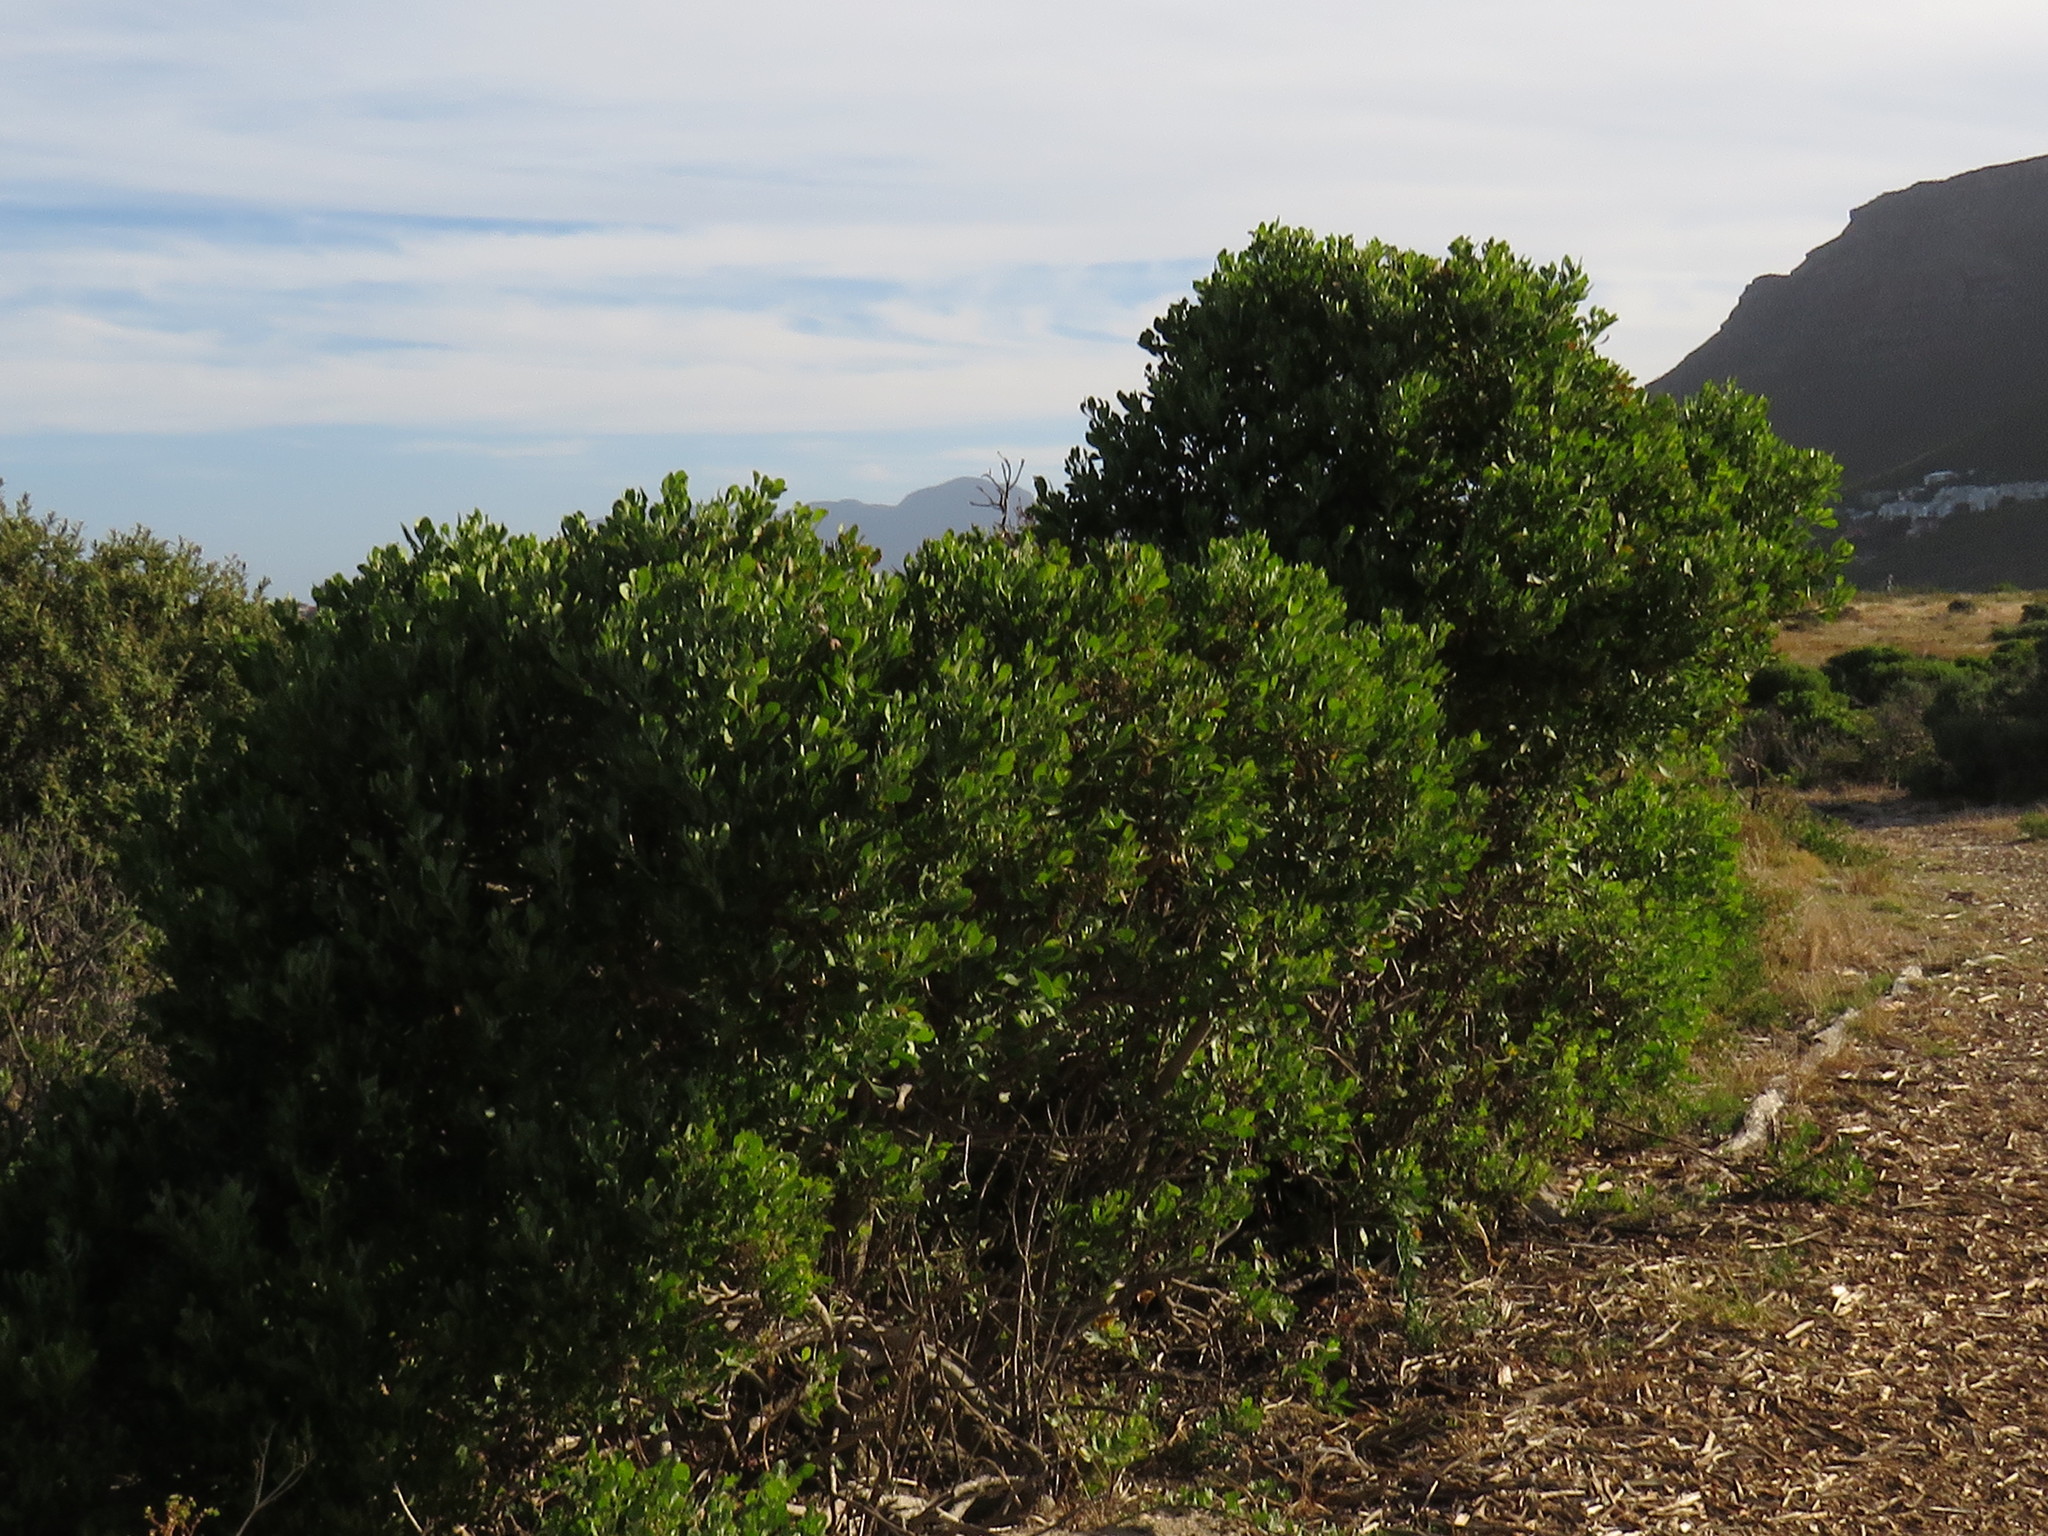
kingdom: Plantae
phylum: Tracheophyta
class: Magnoliopsida
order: Asterales
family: Asteraceae
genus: Osteospermum
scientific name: Osteospermum moniliferum
